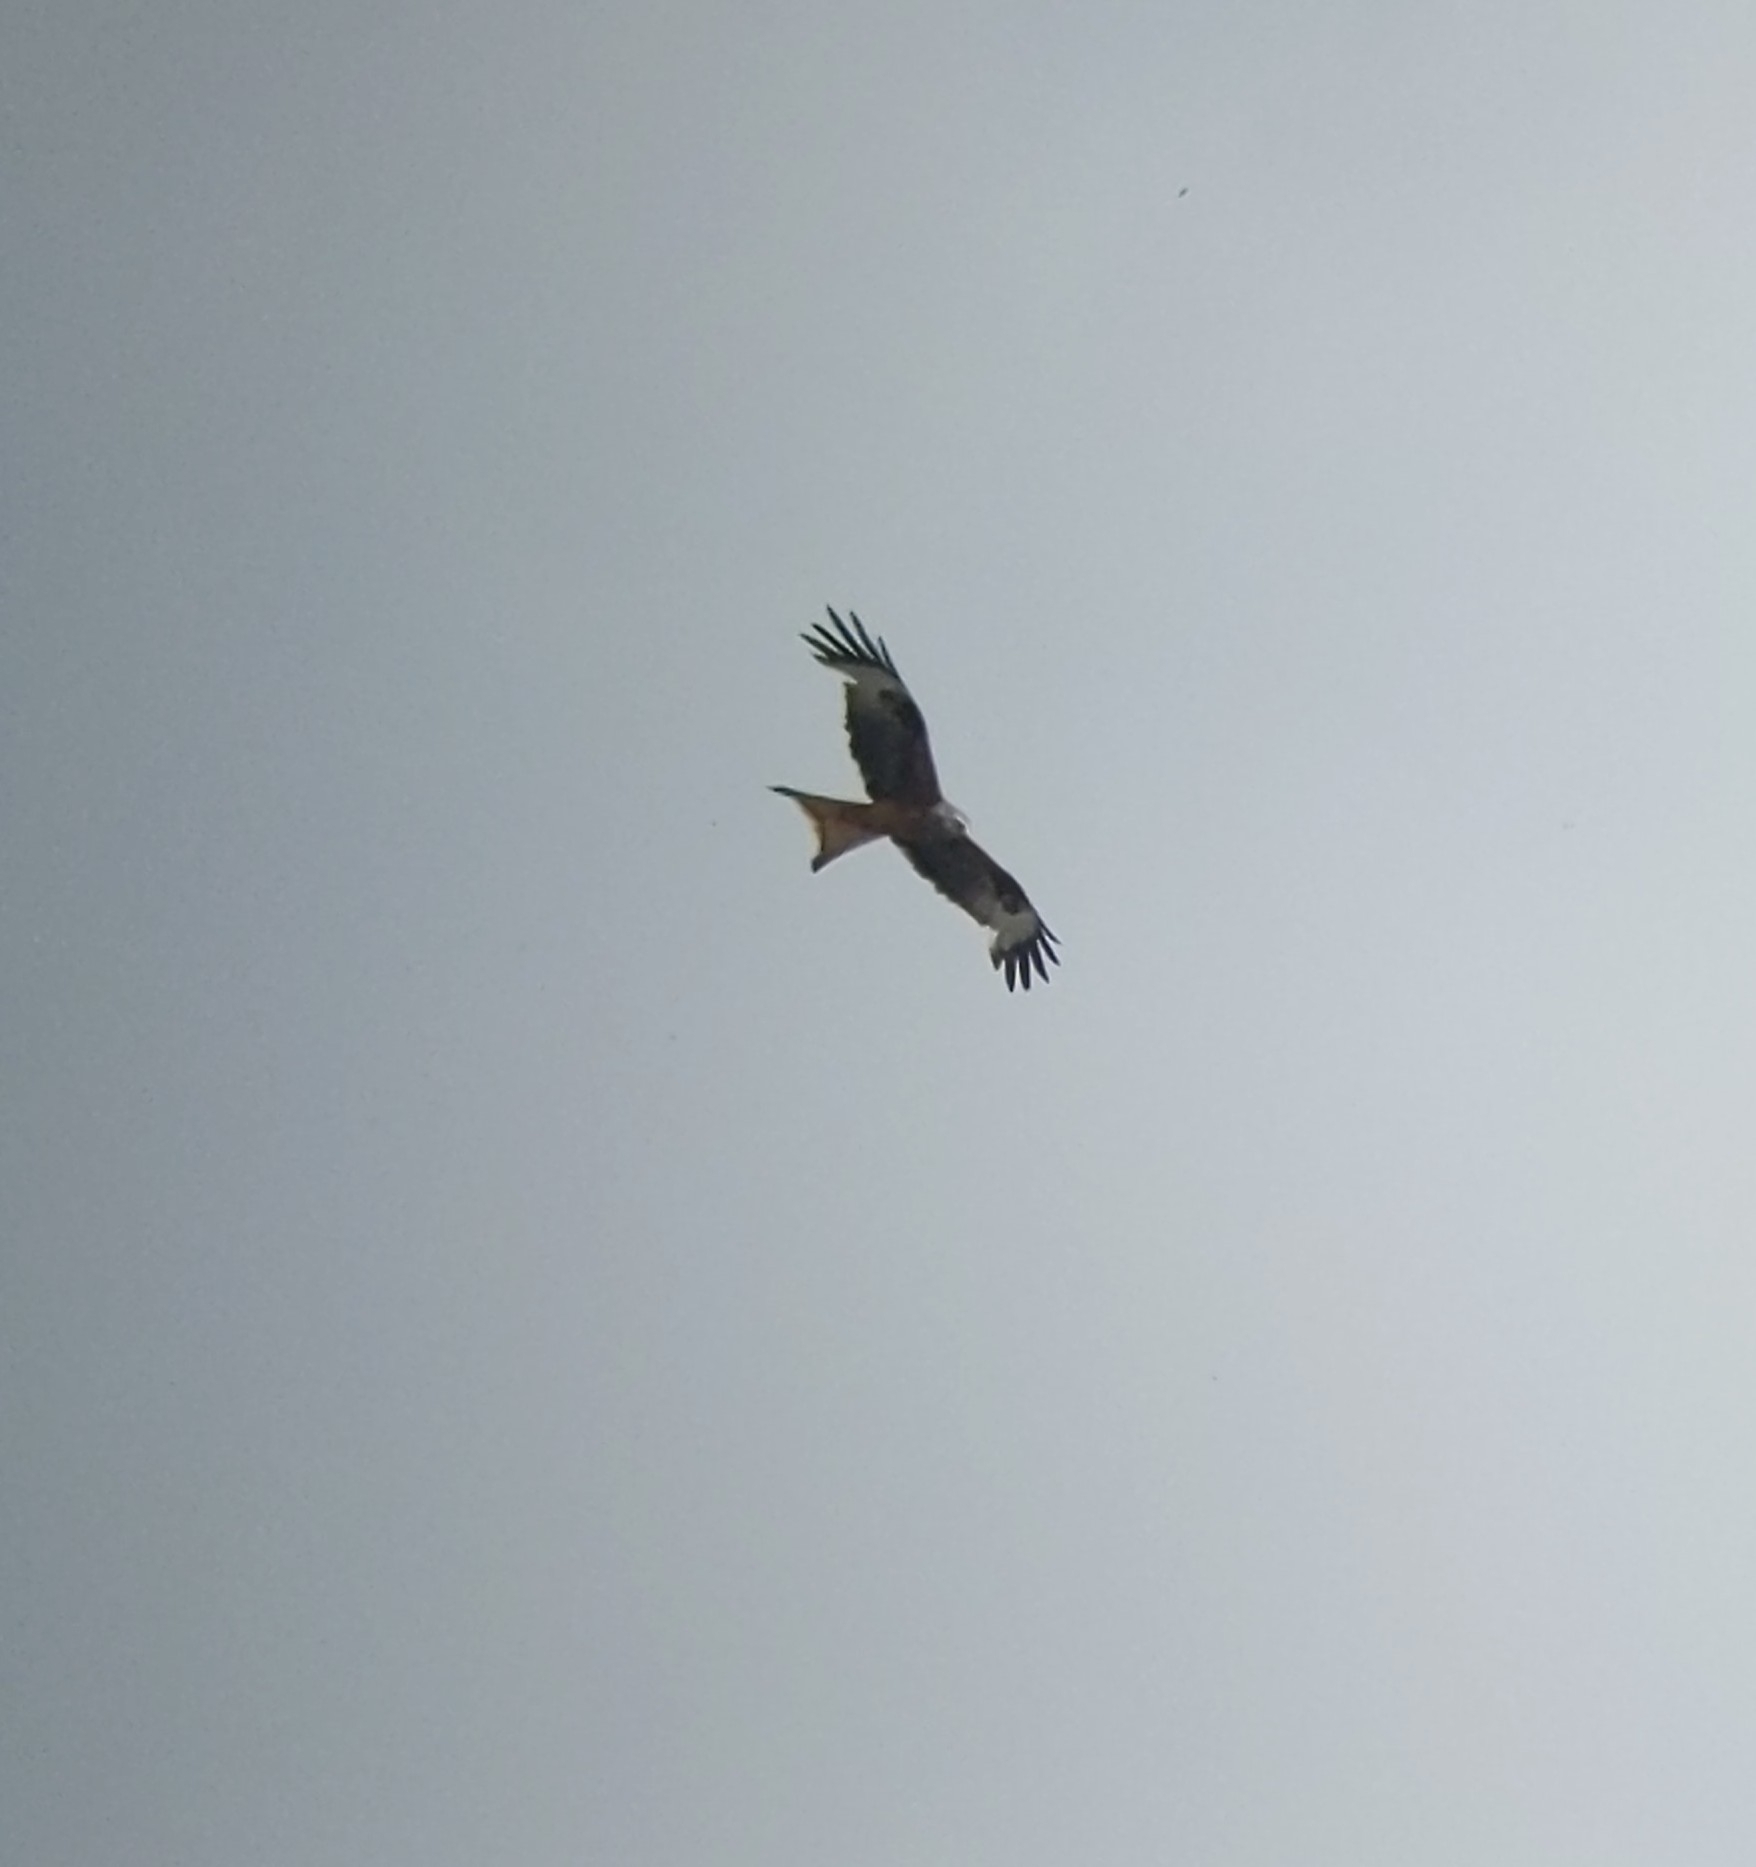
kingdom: Animalia
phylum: Chordata
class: Aves
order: Accipitriformes
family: Accipitridae
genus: Milvus
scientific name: Milvus milvus
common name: Red kite
